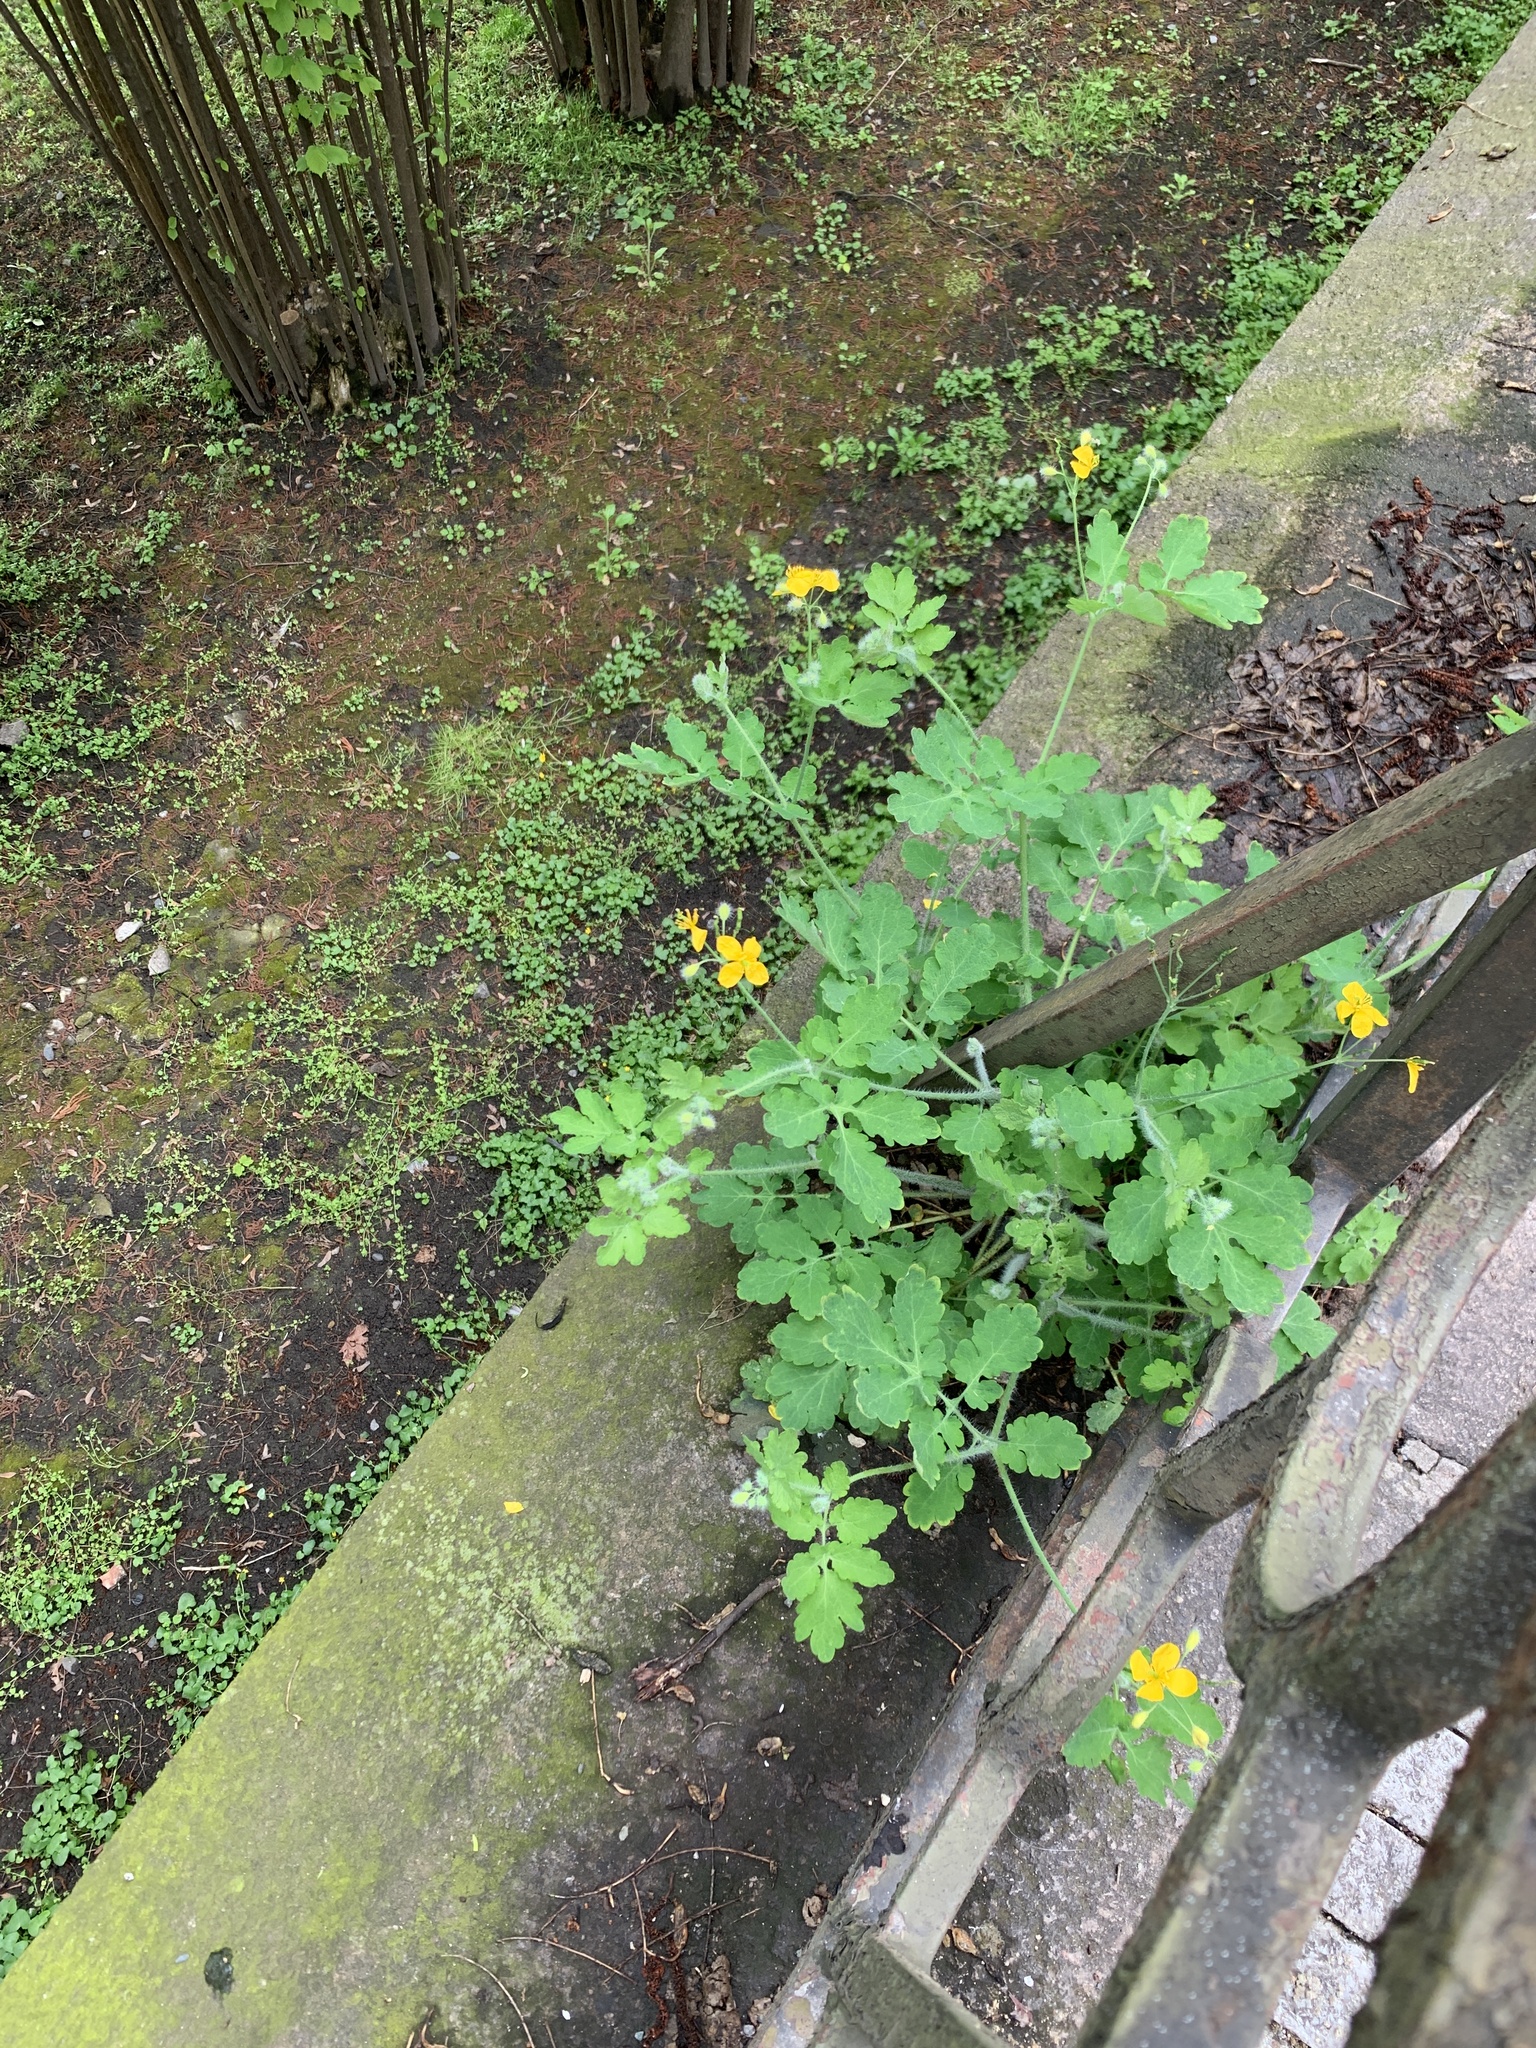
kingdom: Plantae
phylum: Tracheophyta
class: Magnoliopsida
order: Ranunculales
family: Papaveraceae
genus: Chelidonium
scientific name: Chelidonium majus
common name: Greater celandine
